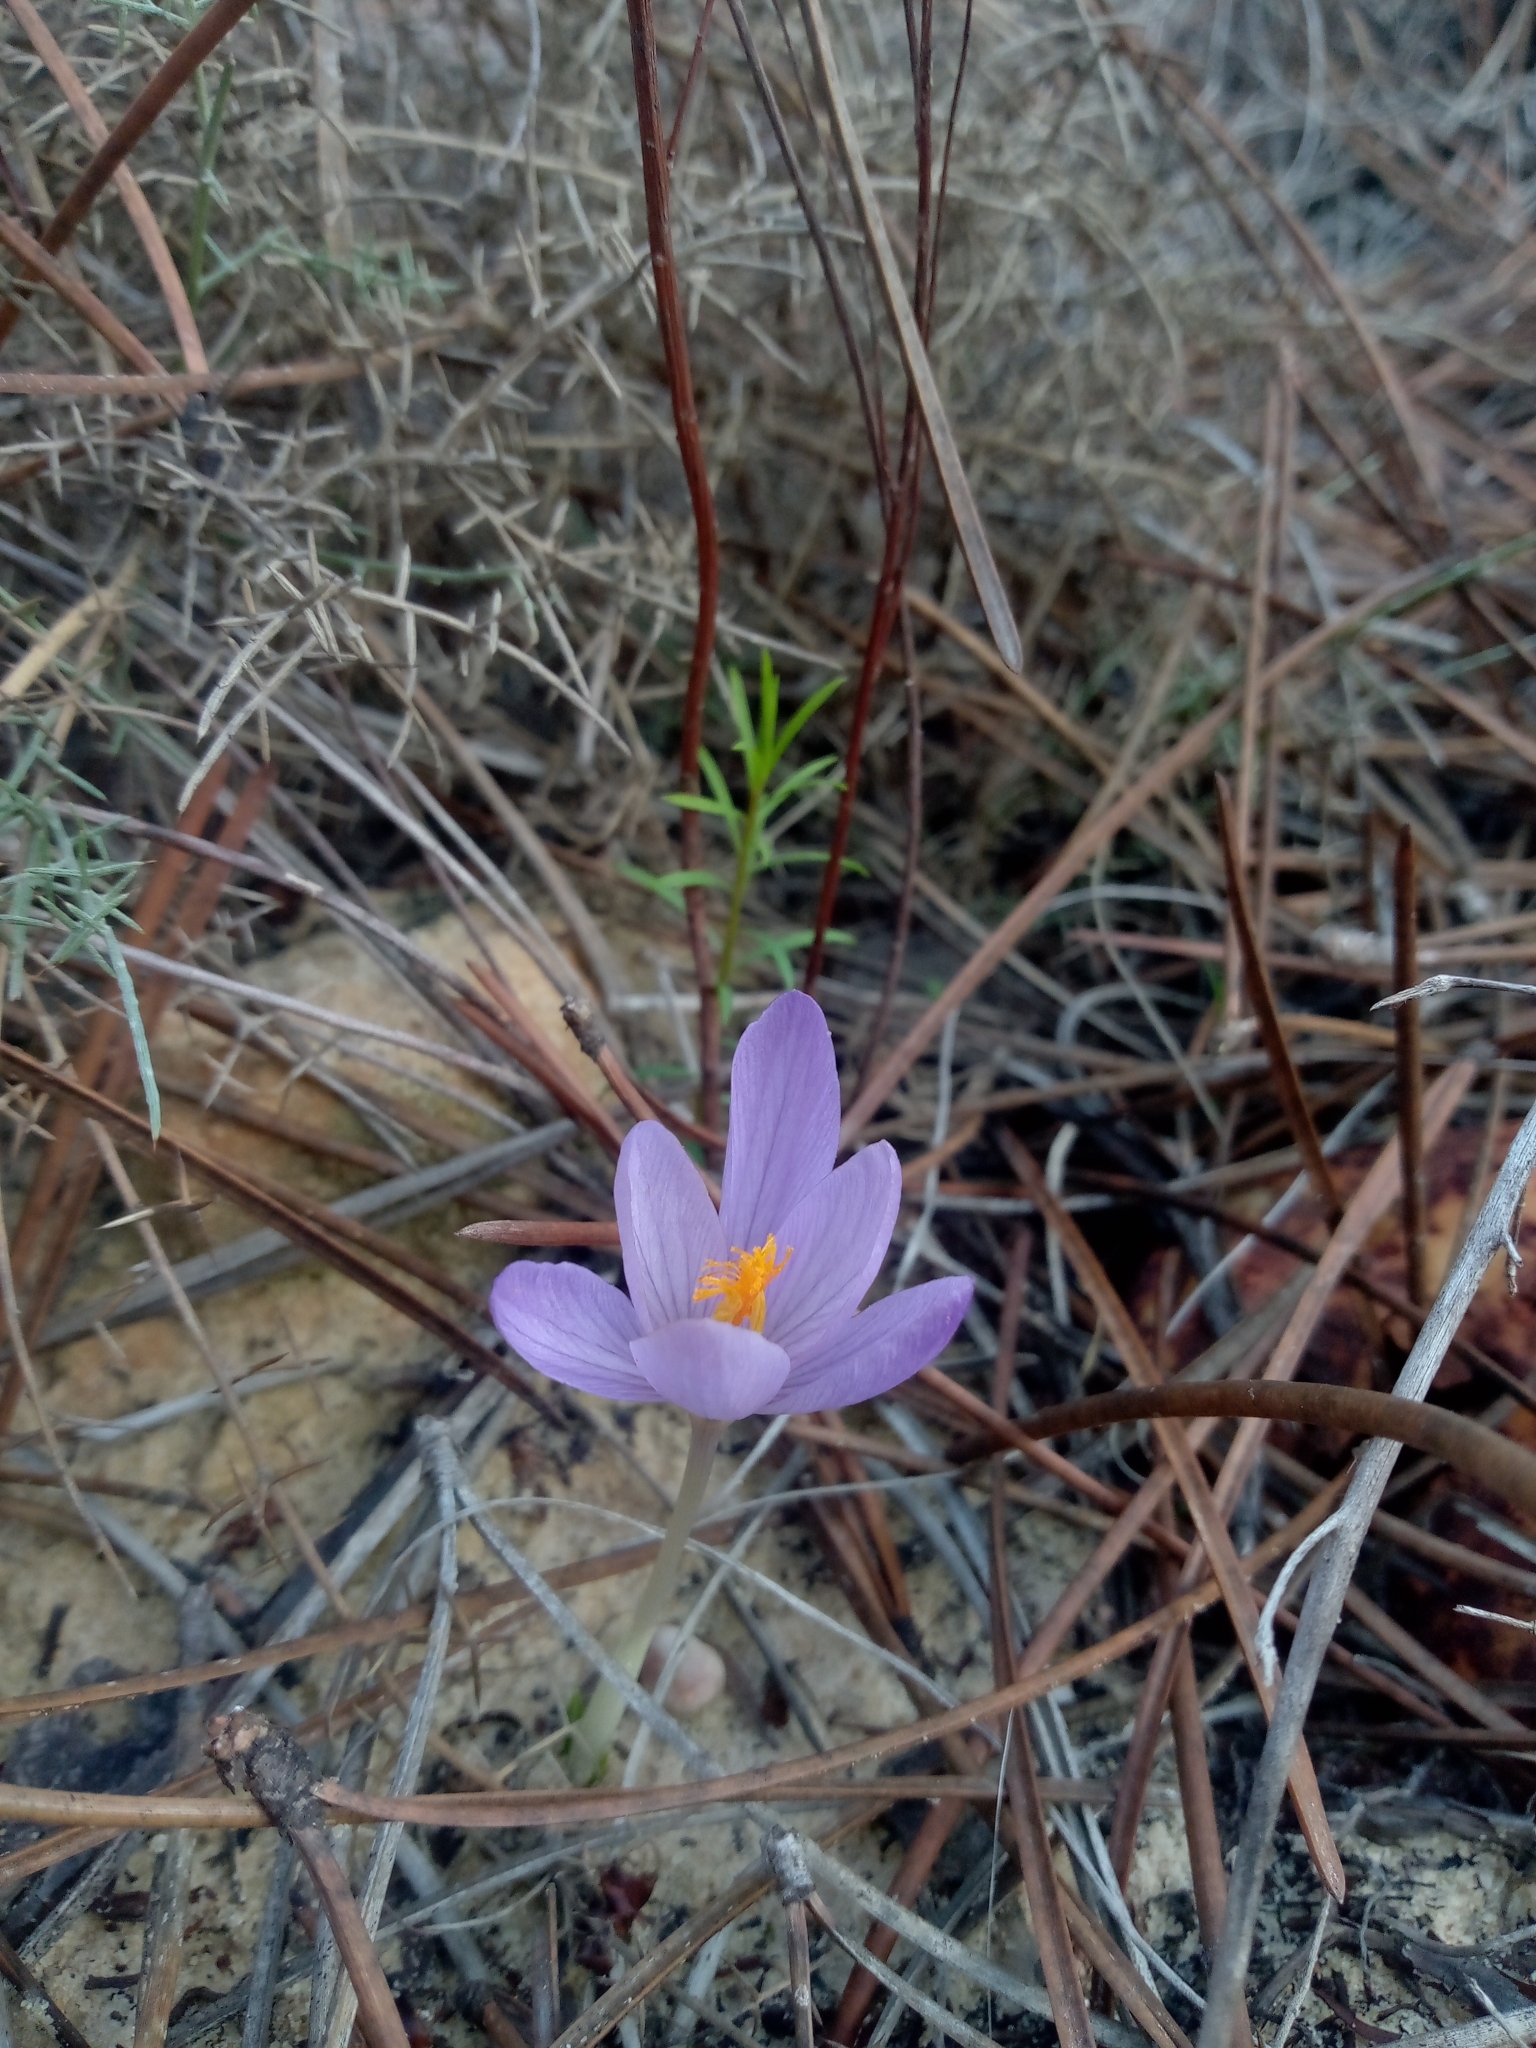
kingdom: Plantae
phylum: Tracheophyta
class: Liliopsida
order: Asparagales
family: Iridaceae
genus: Crocus
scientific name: Crocus serotinus
